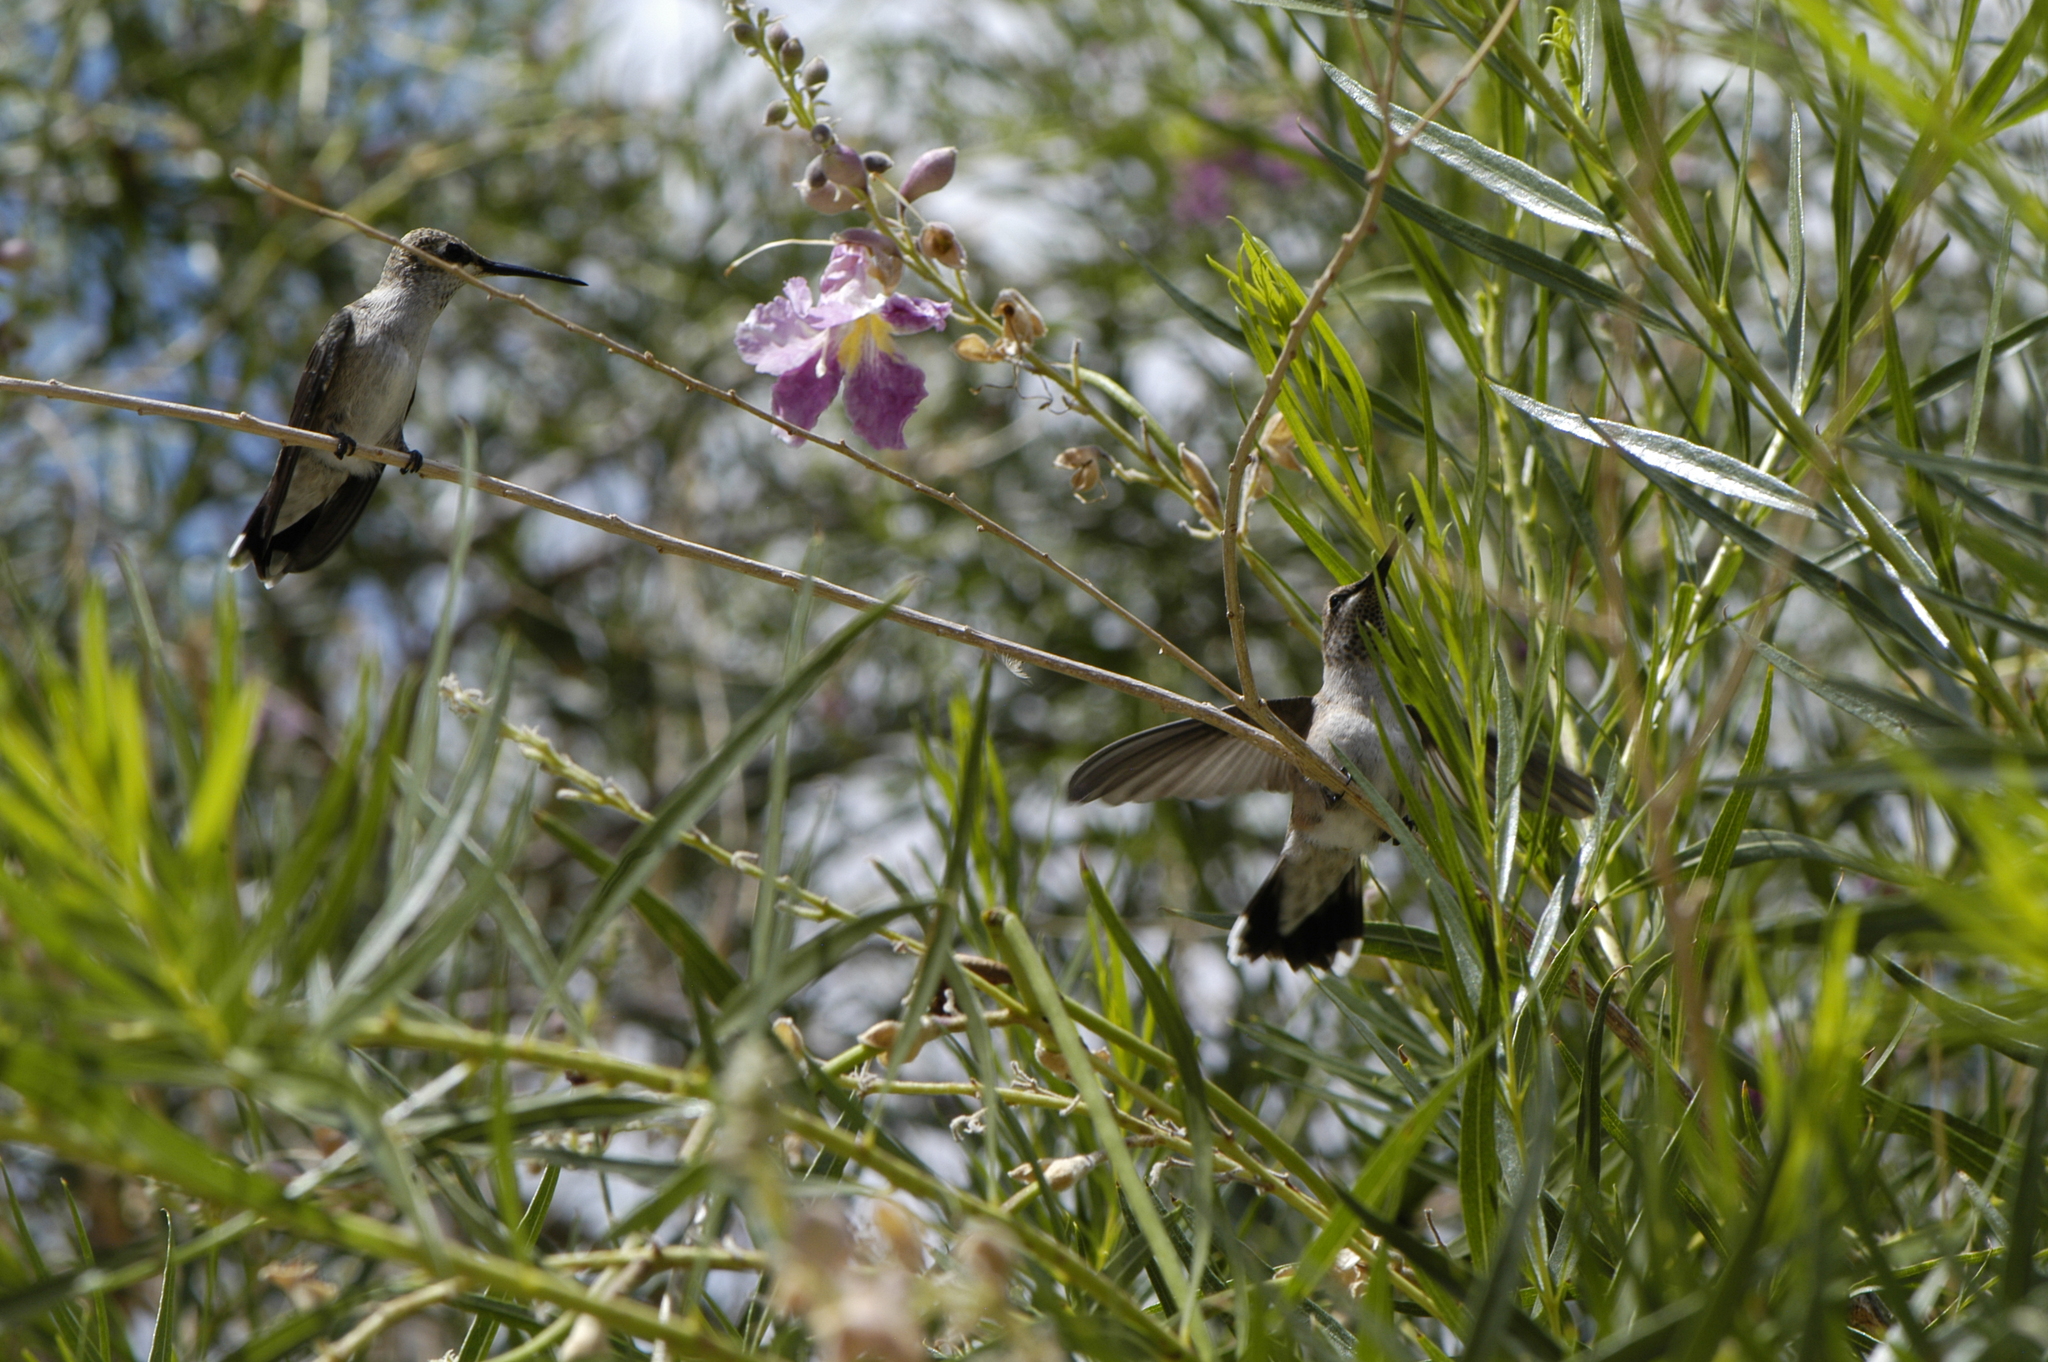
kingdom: Animalia
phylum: Chordata
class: Aves
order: Apodiformes
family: Trochilidae
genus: Archilochus
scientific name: Archilochus alexandri
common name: Black-chinned hummingbird
